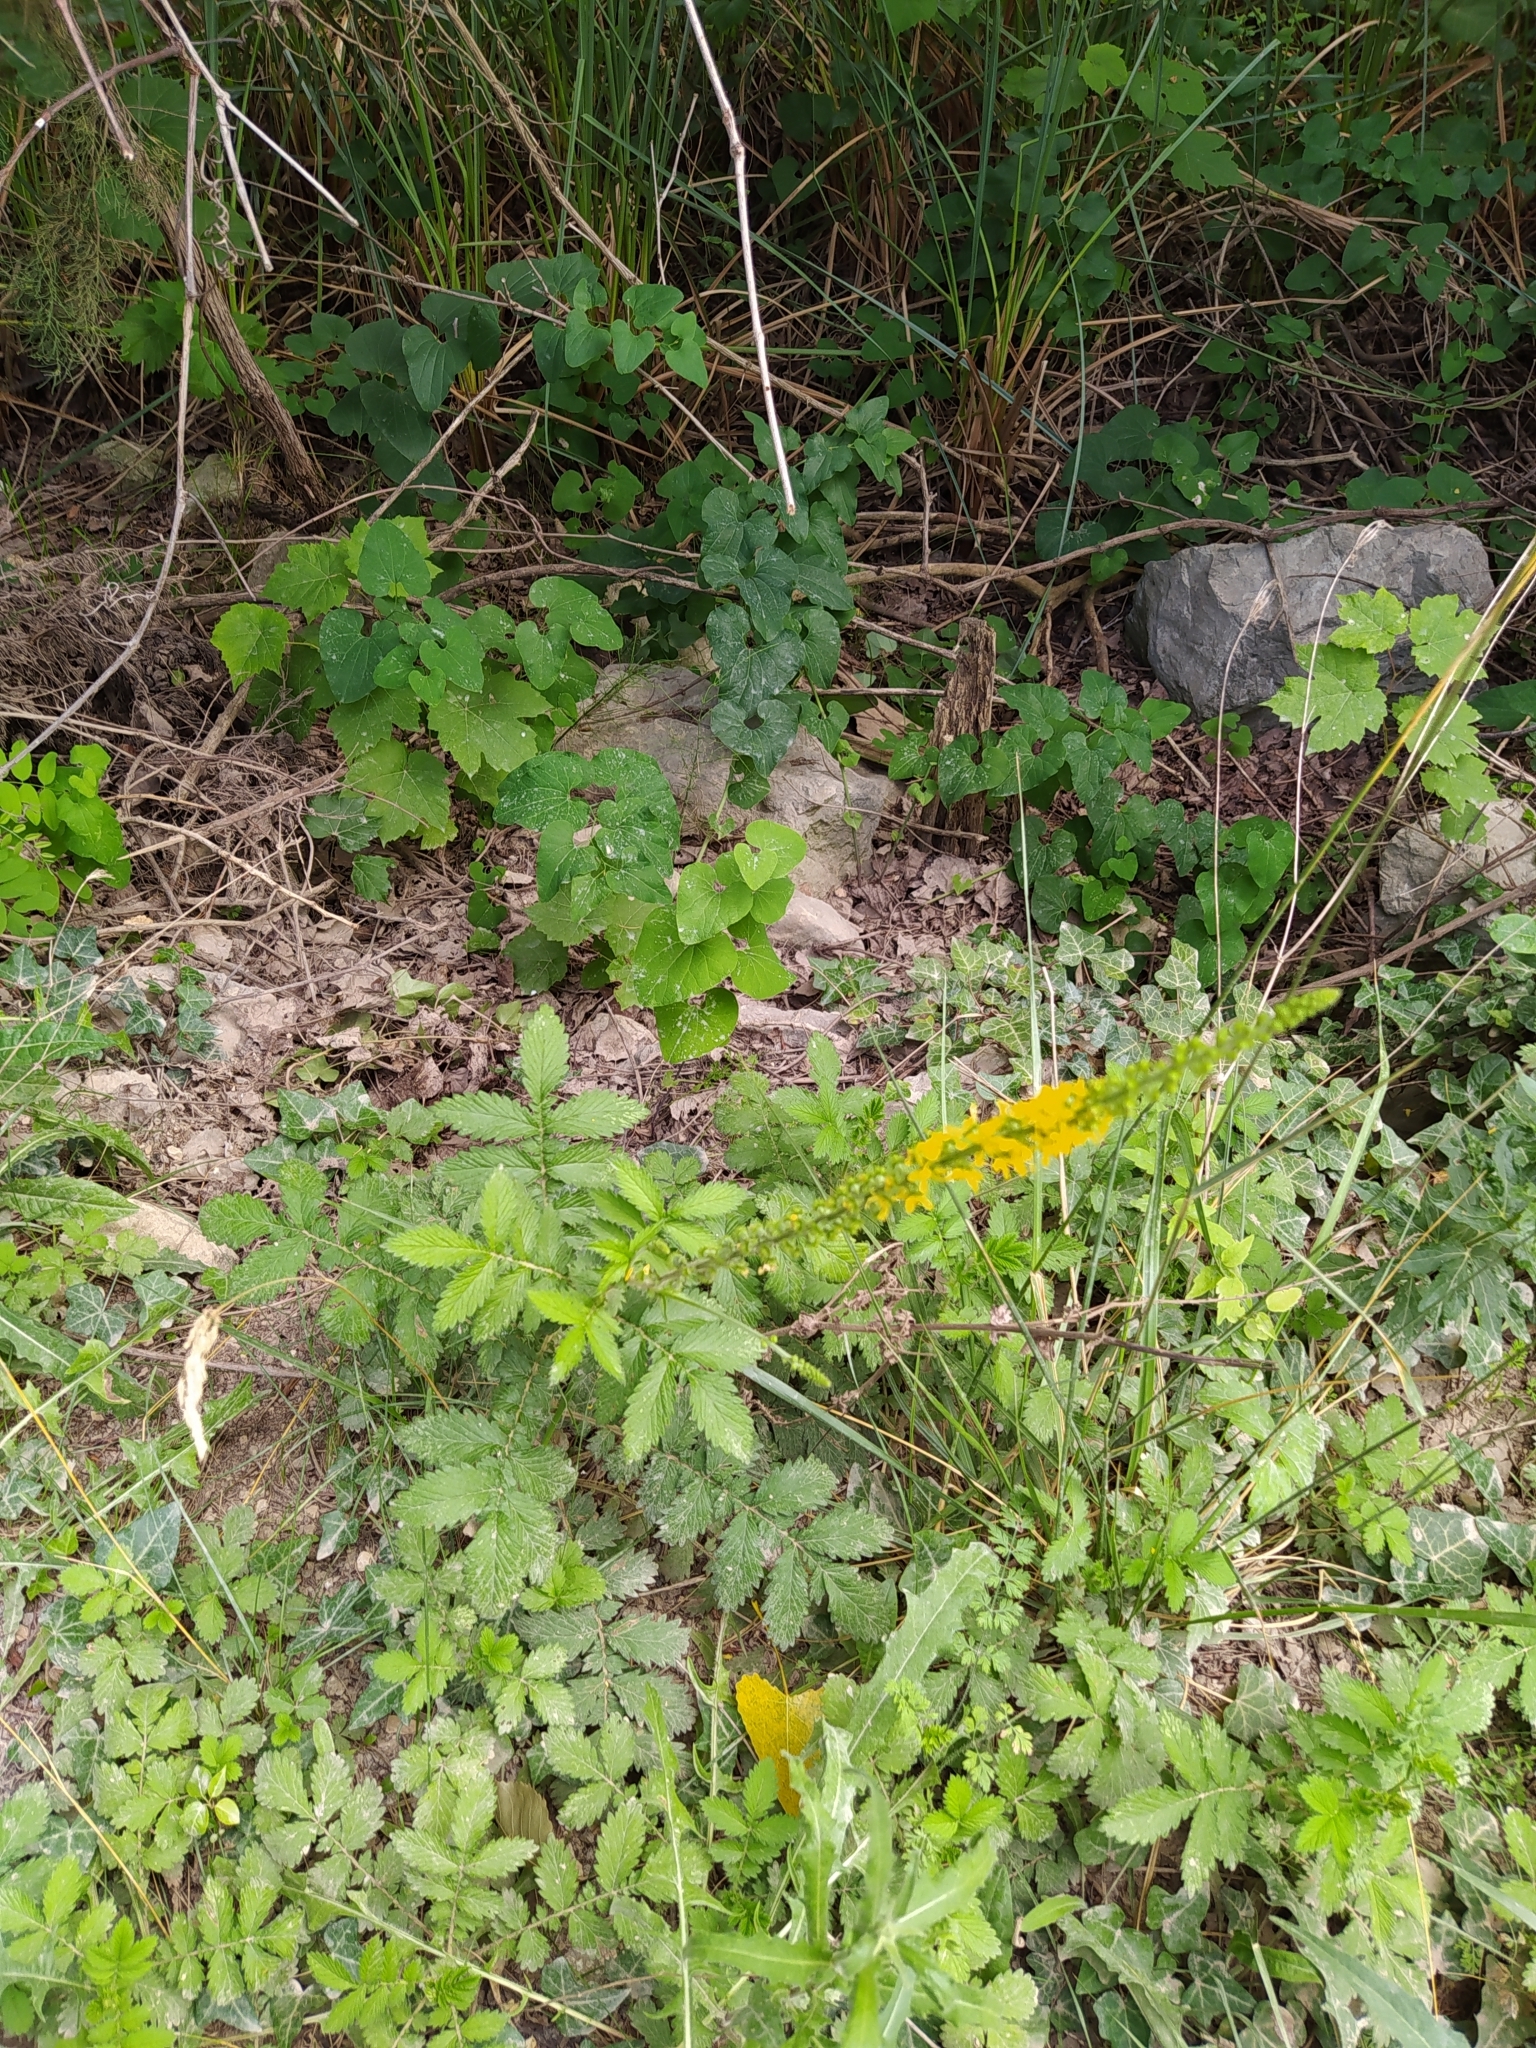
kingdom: Plantae
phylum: Tracheophyta
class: Magnoliopsida
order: Rosales
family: Rosaceae
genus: Agrimonia
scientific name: Agrimonia eupatoria
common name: Agrimony
